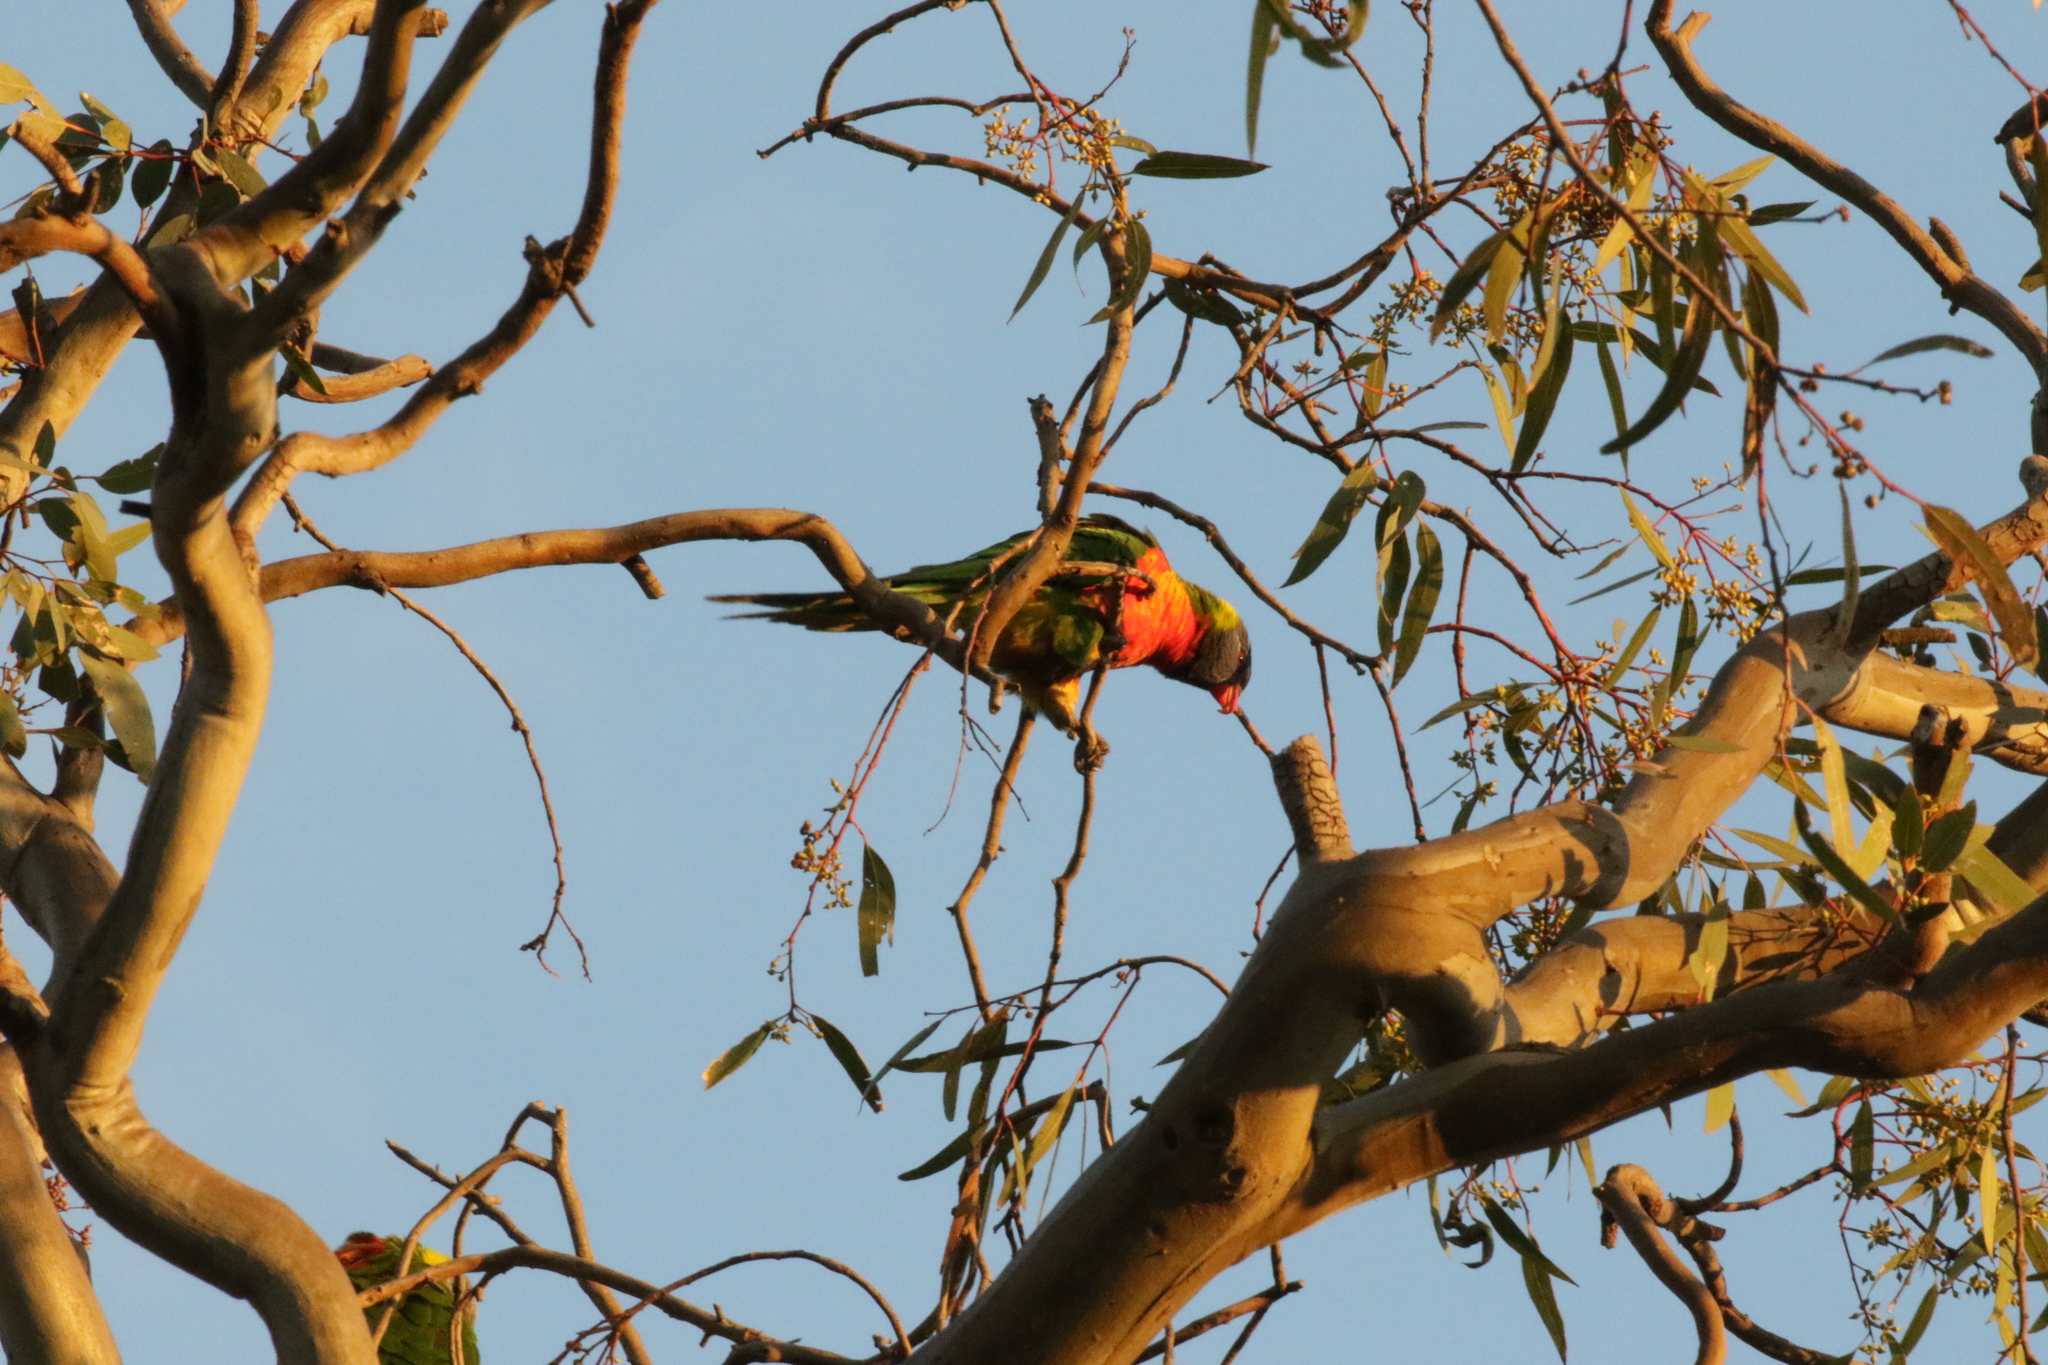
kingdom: Animalia
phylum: Chordata
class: Aves
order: Psittaciformes
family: Psittacidae
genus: Trichoglossus
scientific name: Trichoglossus haematodus
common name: Coconut lorikeet
